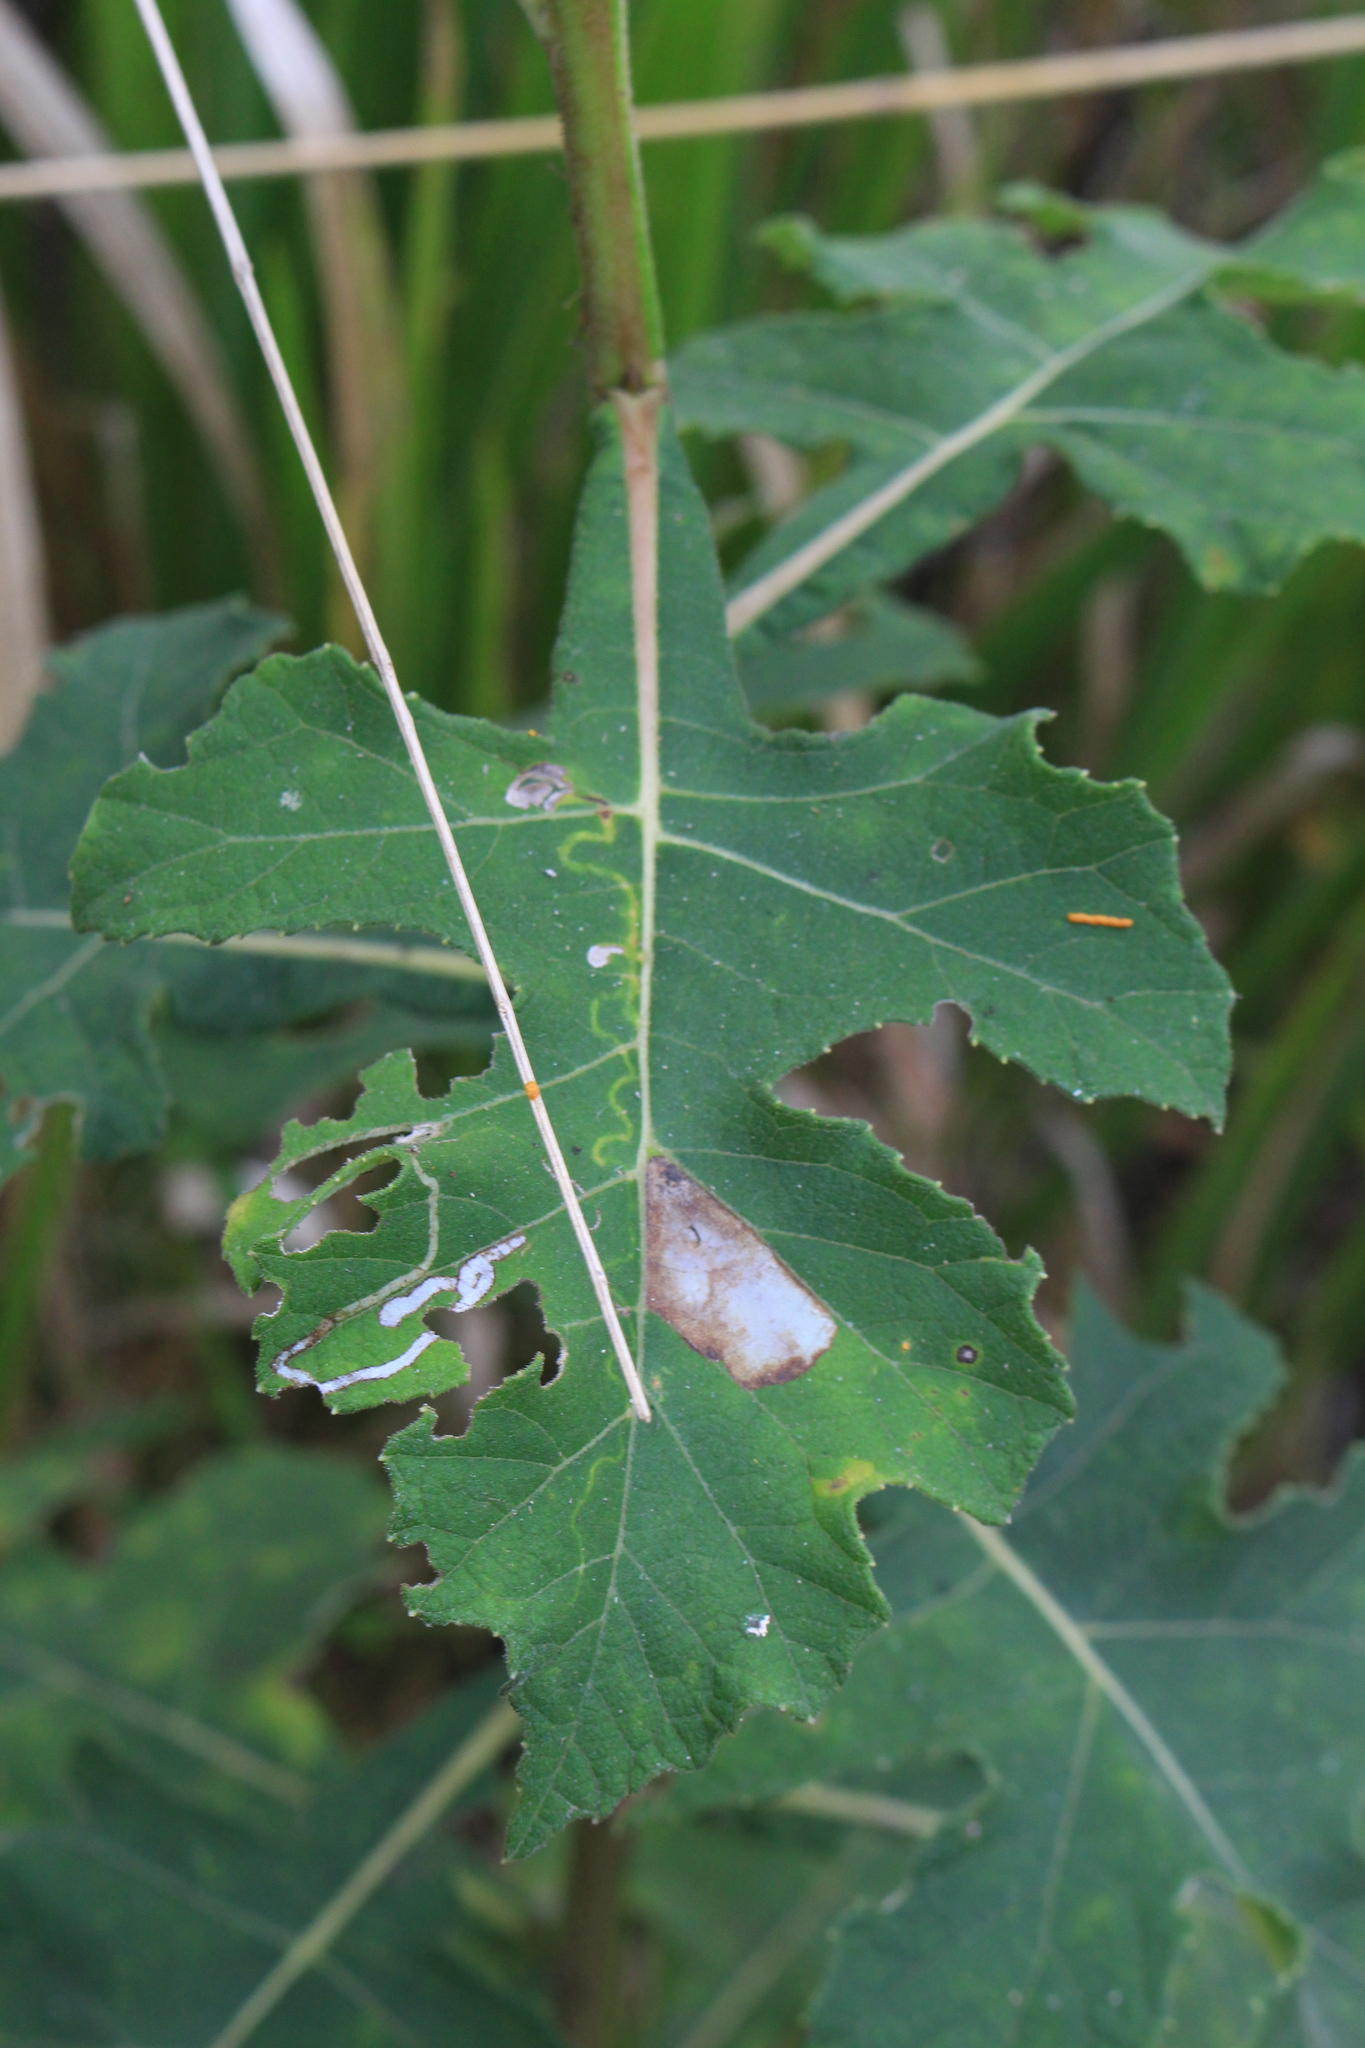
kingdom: Plantae
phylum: Tracheophyta
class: Magnoliopsida
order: Asterales
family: Asteraceae
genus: Verbesina
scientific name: Verbesina turbacensis
